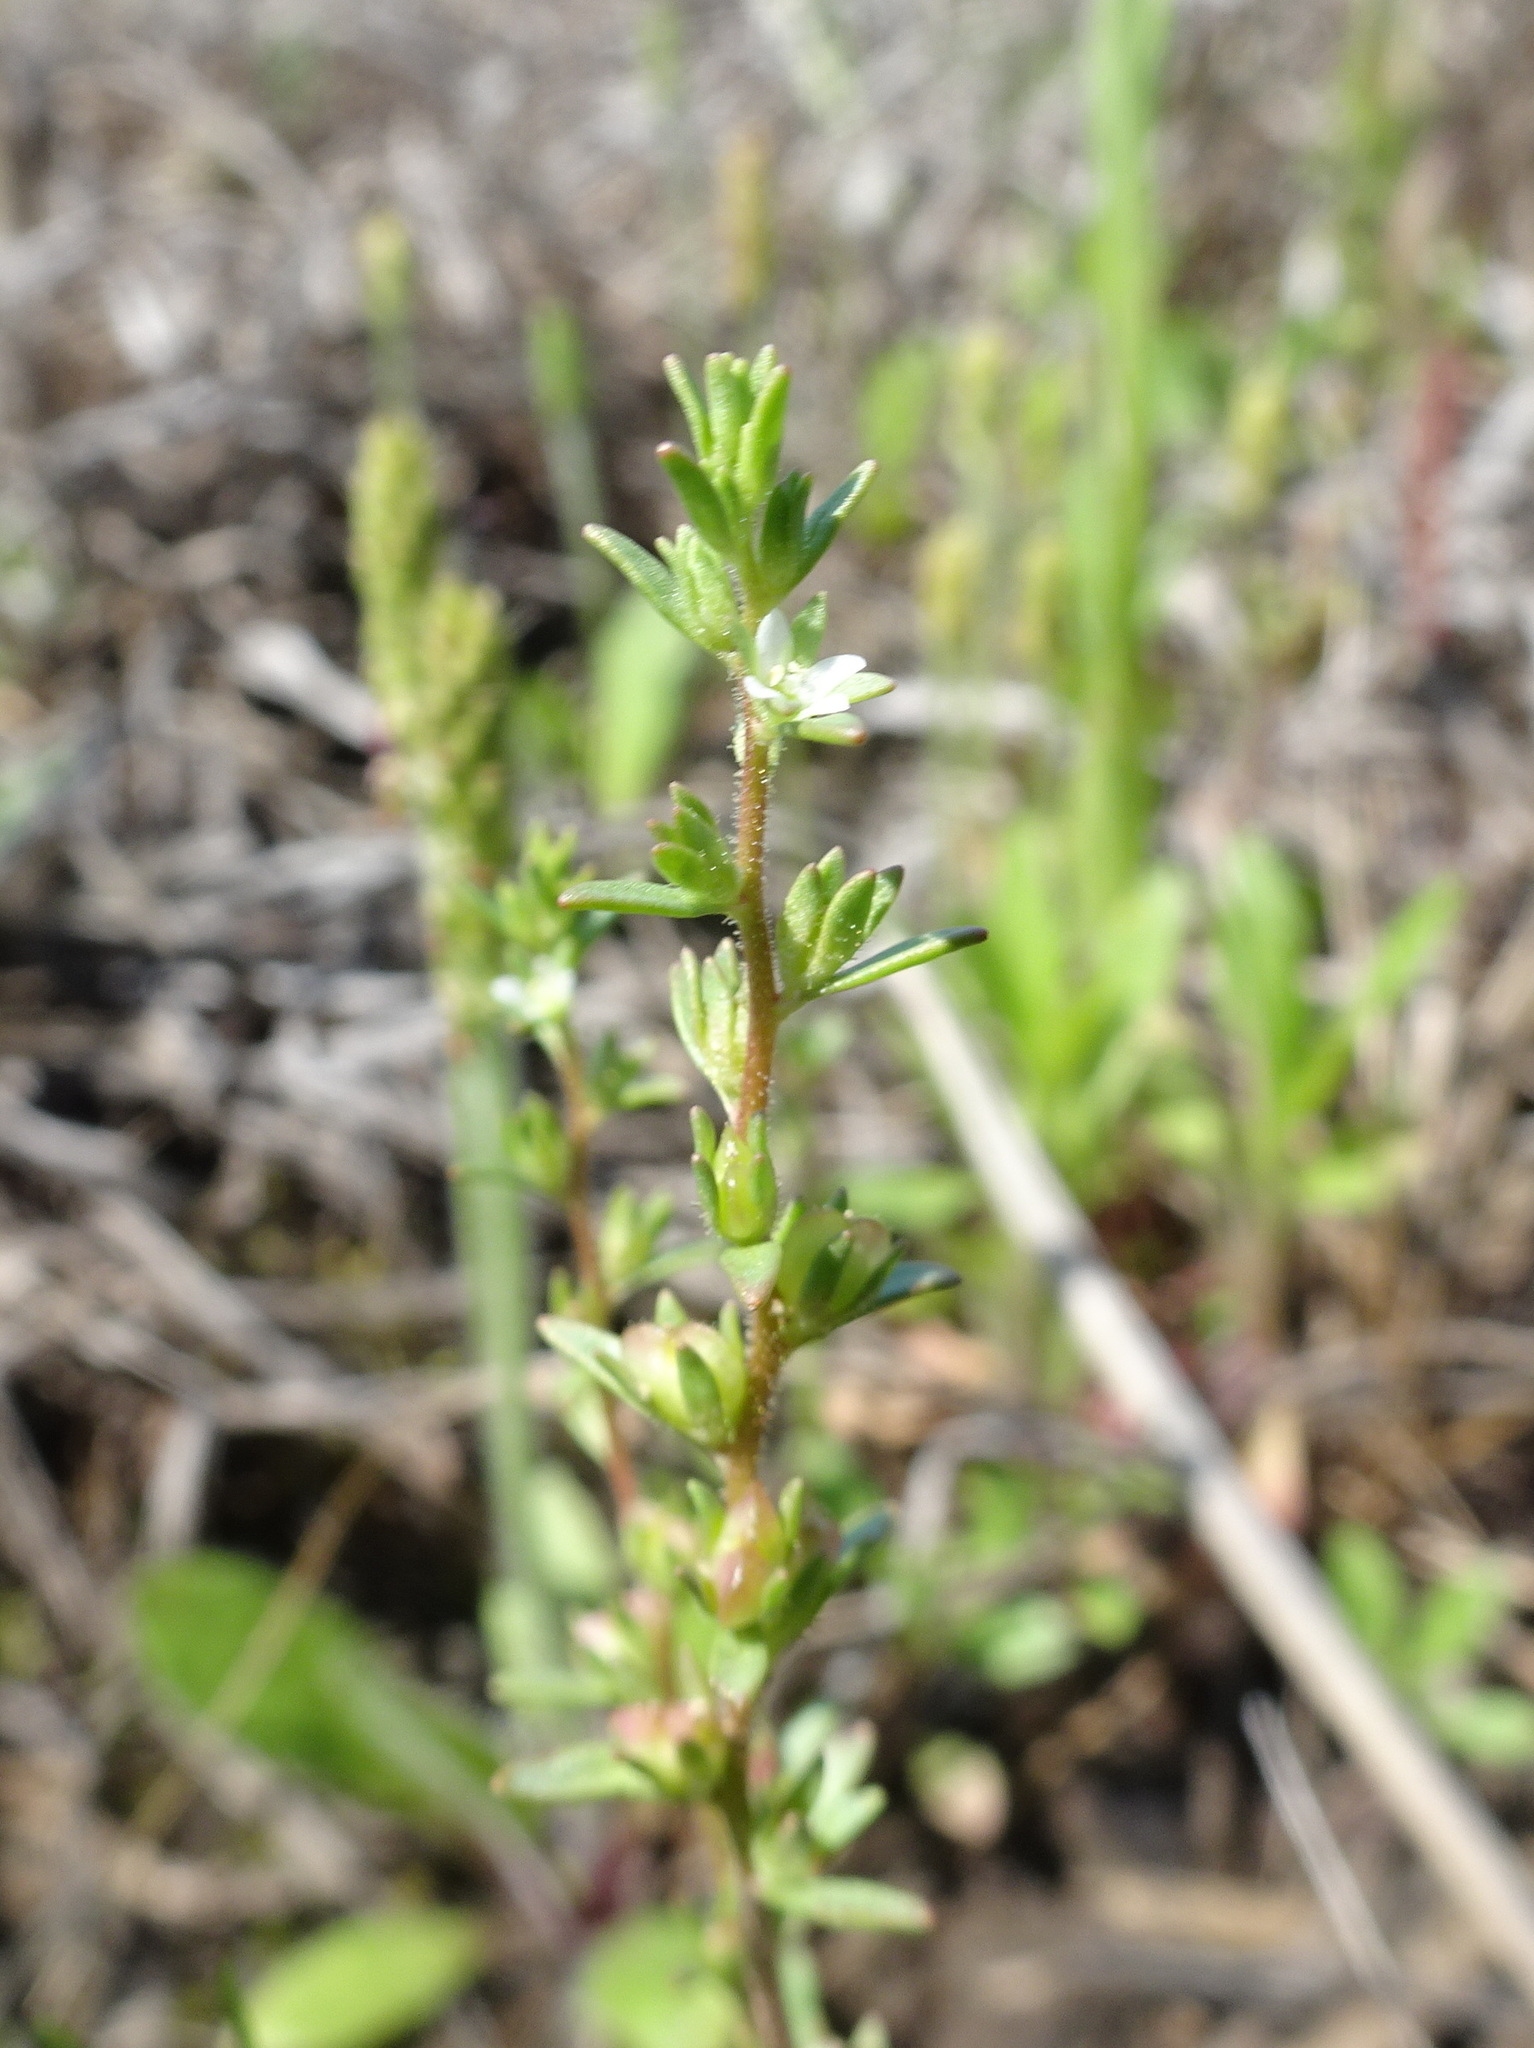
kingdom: Plantae
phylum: Tracheophyta
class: Magnoliopsida
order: Lamiales
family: Plantaginaceae
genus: Veronica
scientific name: Veronica peregrina
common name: Neckweed
